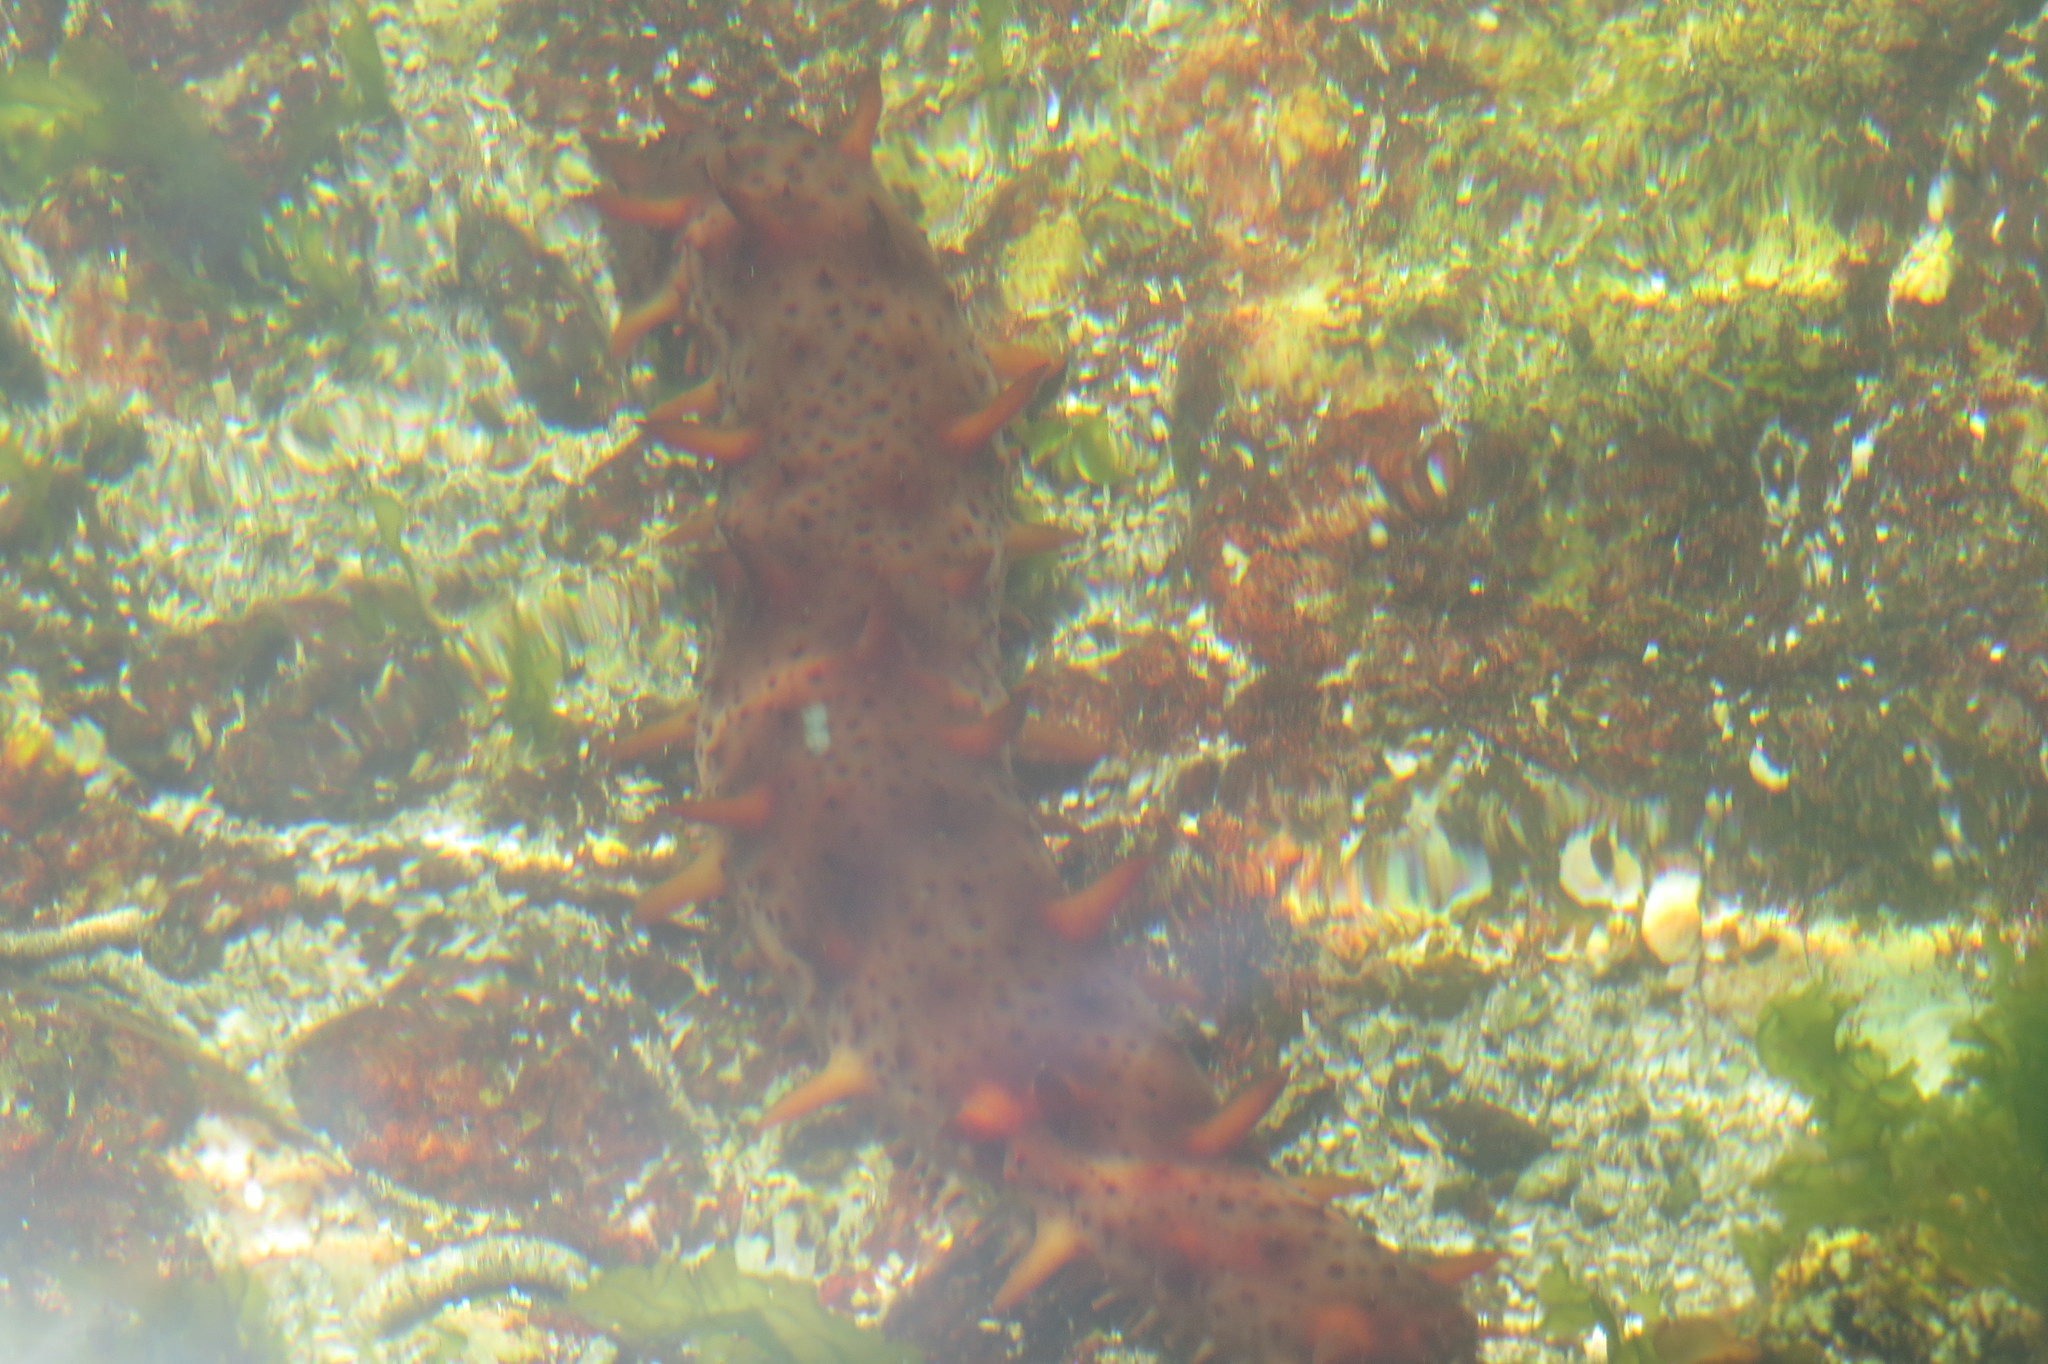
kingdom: Animalia
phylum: Echinodermata
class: Holothuroidea
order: Synallactida
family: Stichopodidae
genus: Apostichopus
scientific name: Apostichopus californicus
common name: California sea cucumber
